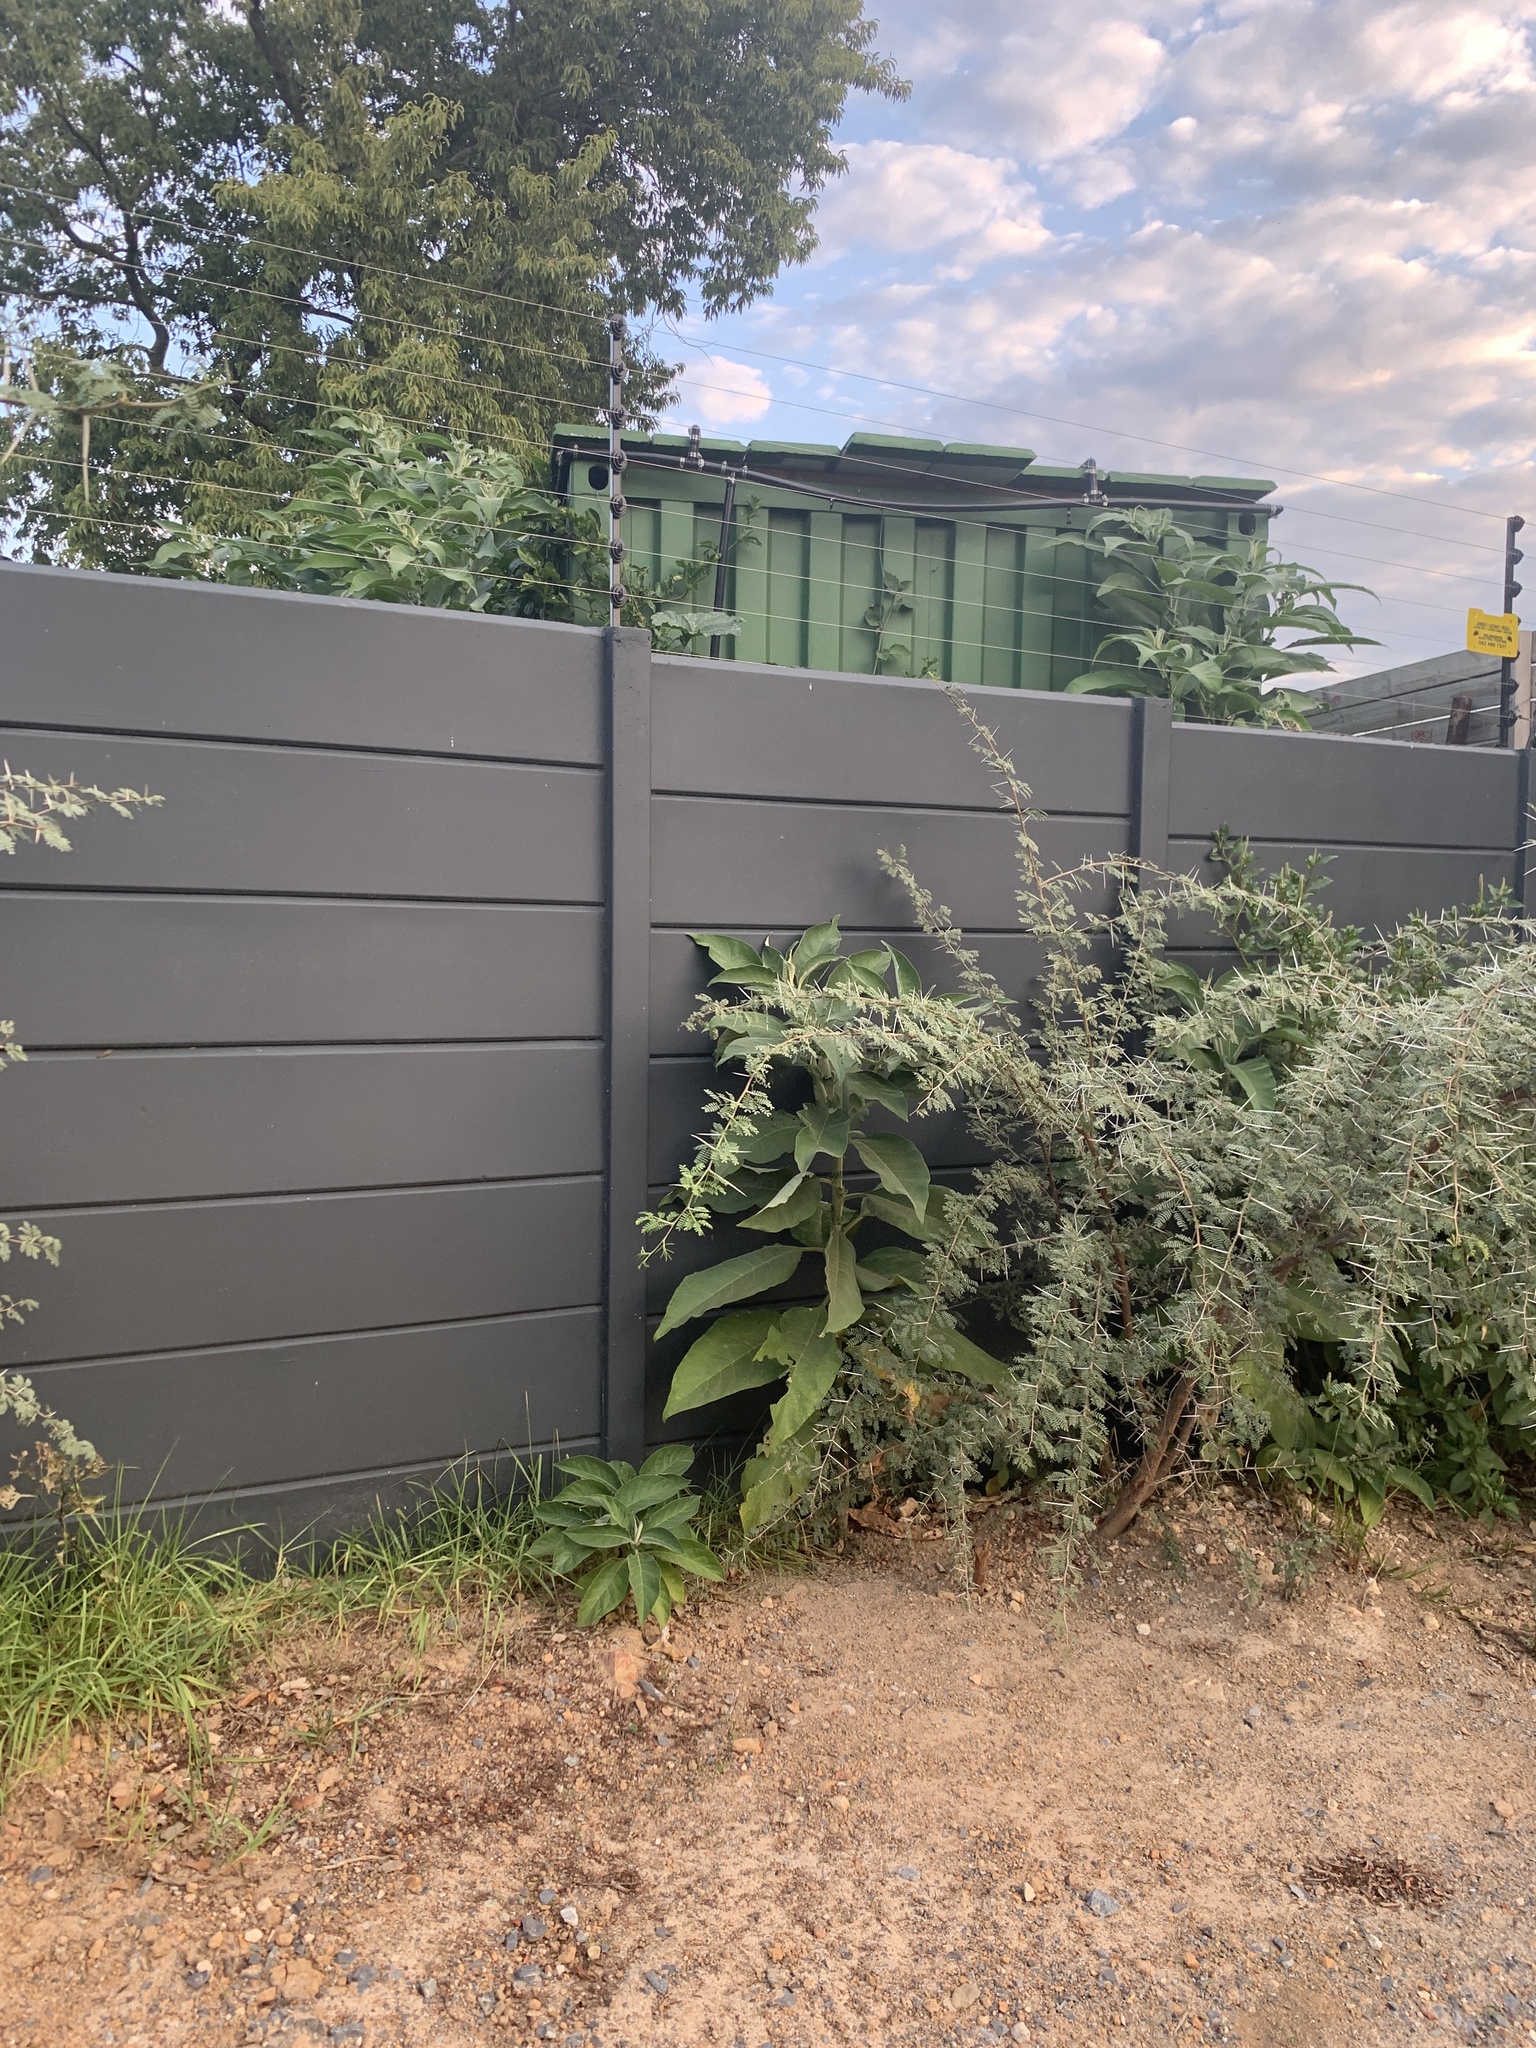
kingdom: Plantae
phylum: Tracheophyta
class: Magnoliopsida
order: Solanales
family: Solanaceae
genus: Solanum
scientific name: Solanum mauritianum
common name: Earleaf nightshade
